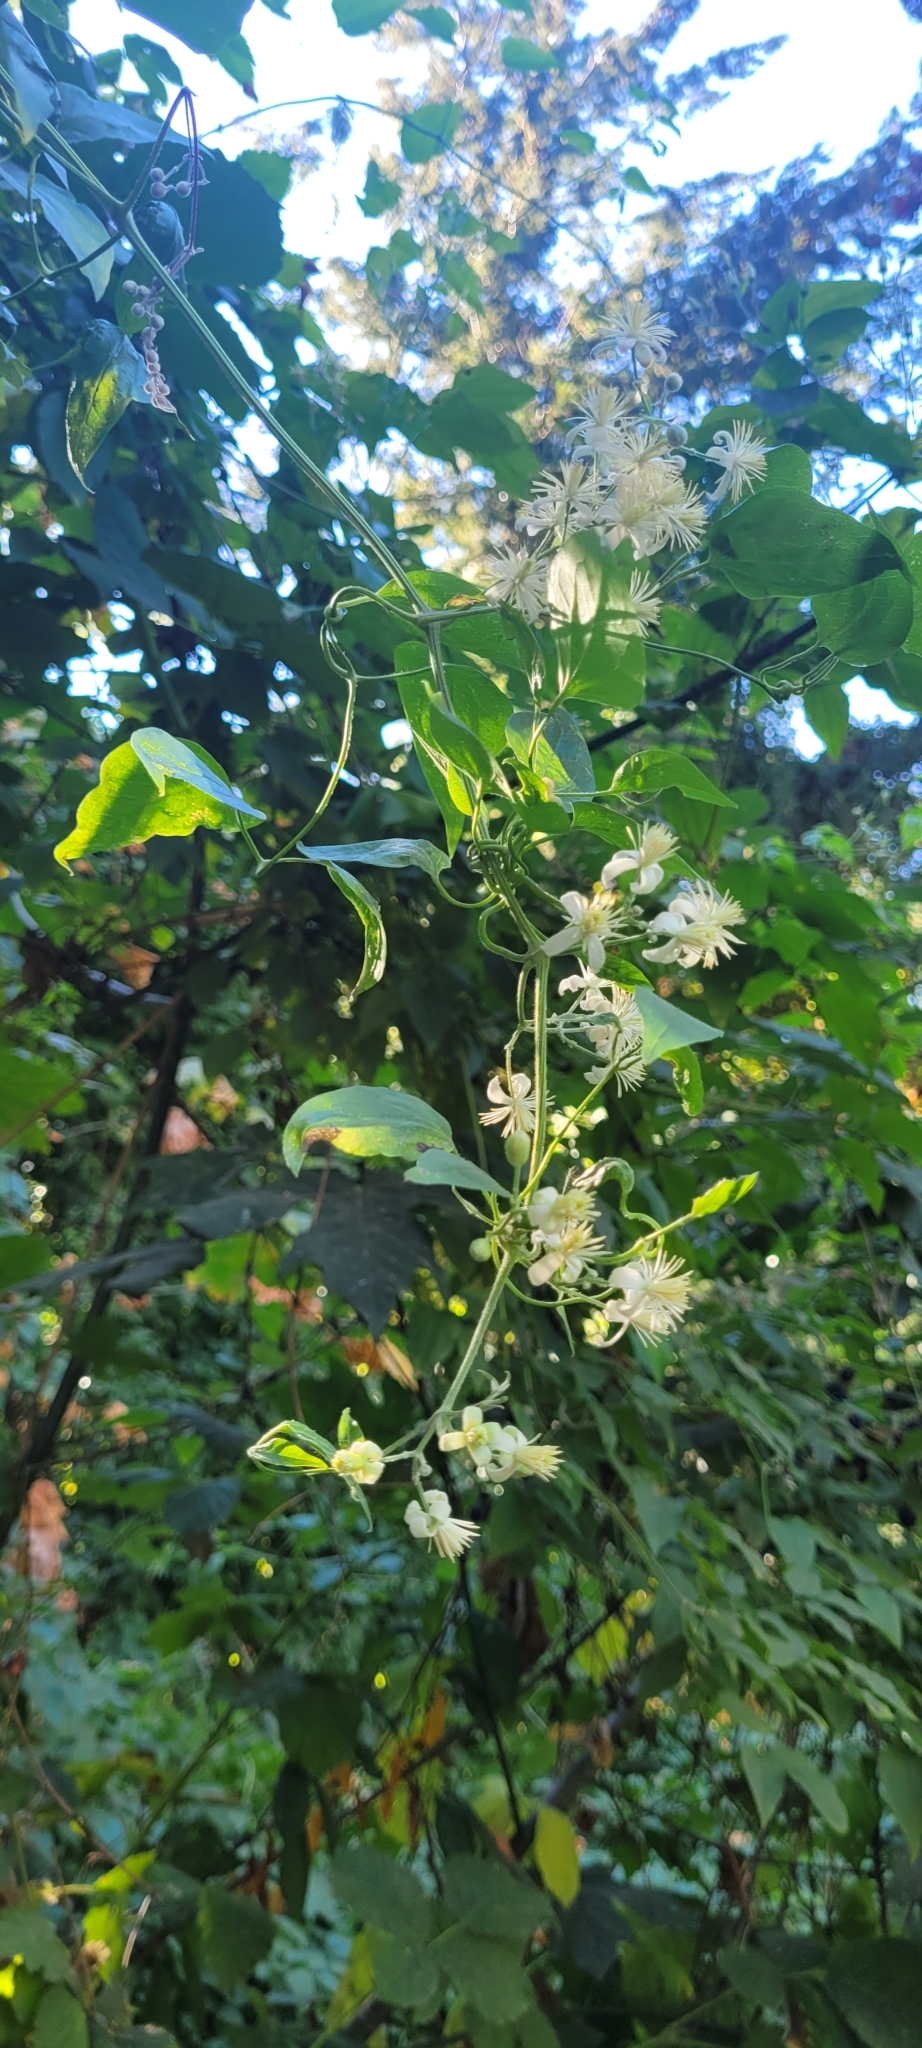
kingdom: Plantae
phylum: Tracheophyta
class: Magnoliopsida
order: Ranunculales
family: Ranunculaceae
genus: Clematis
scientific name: Clematis vitalba
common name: Evergreen clematis
